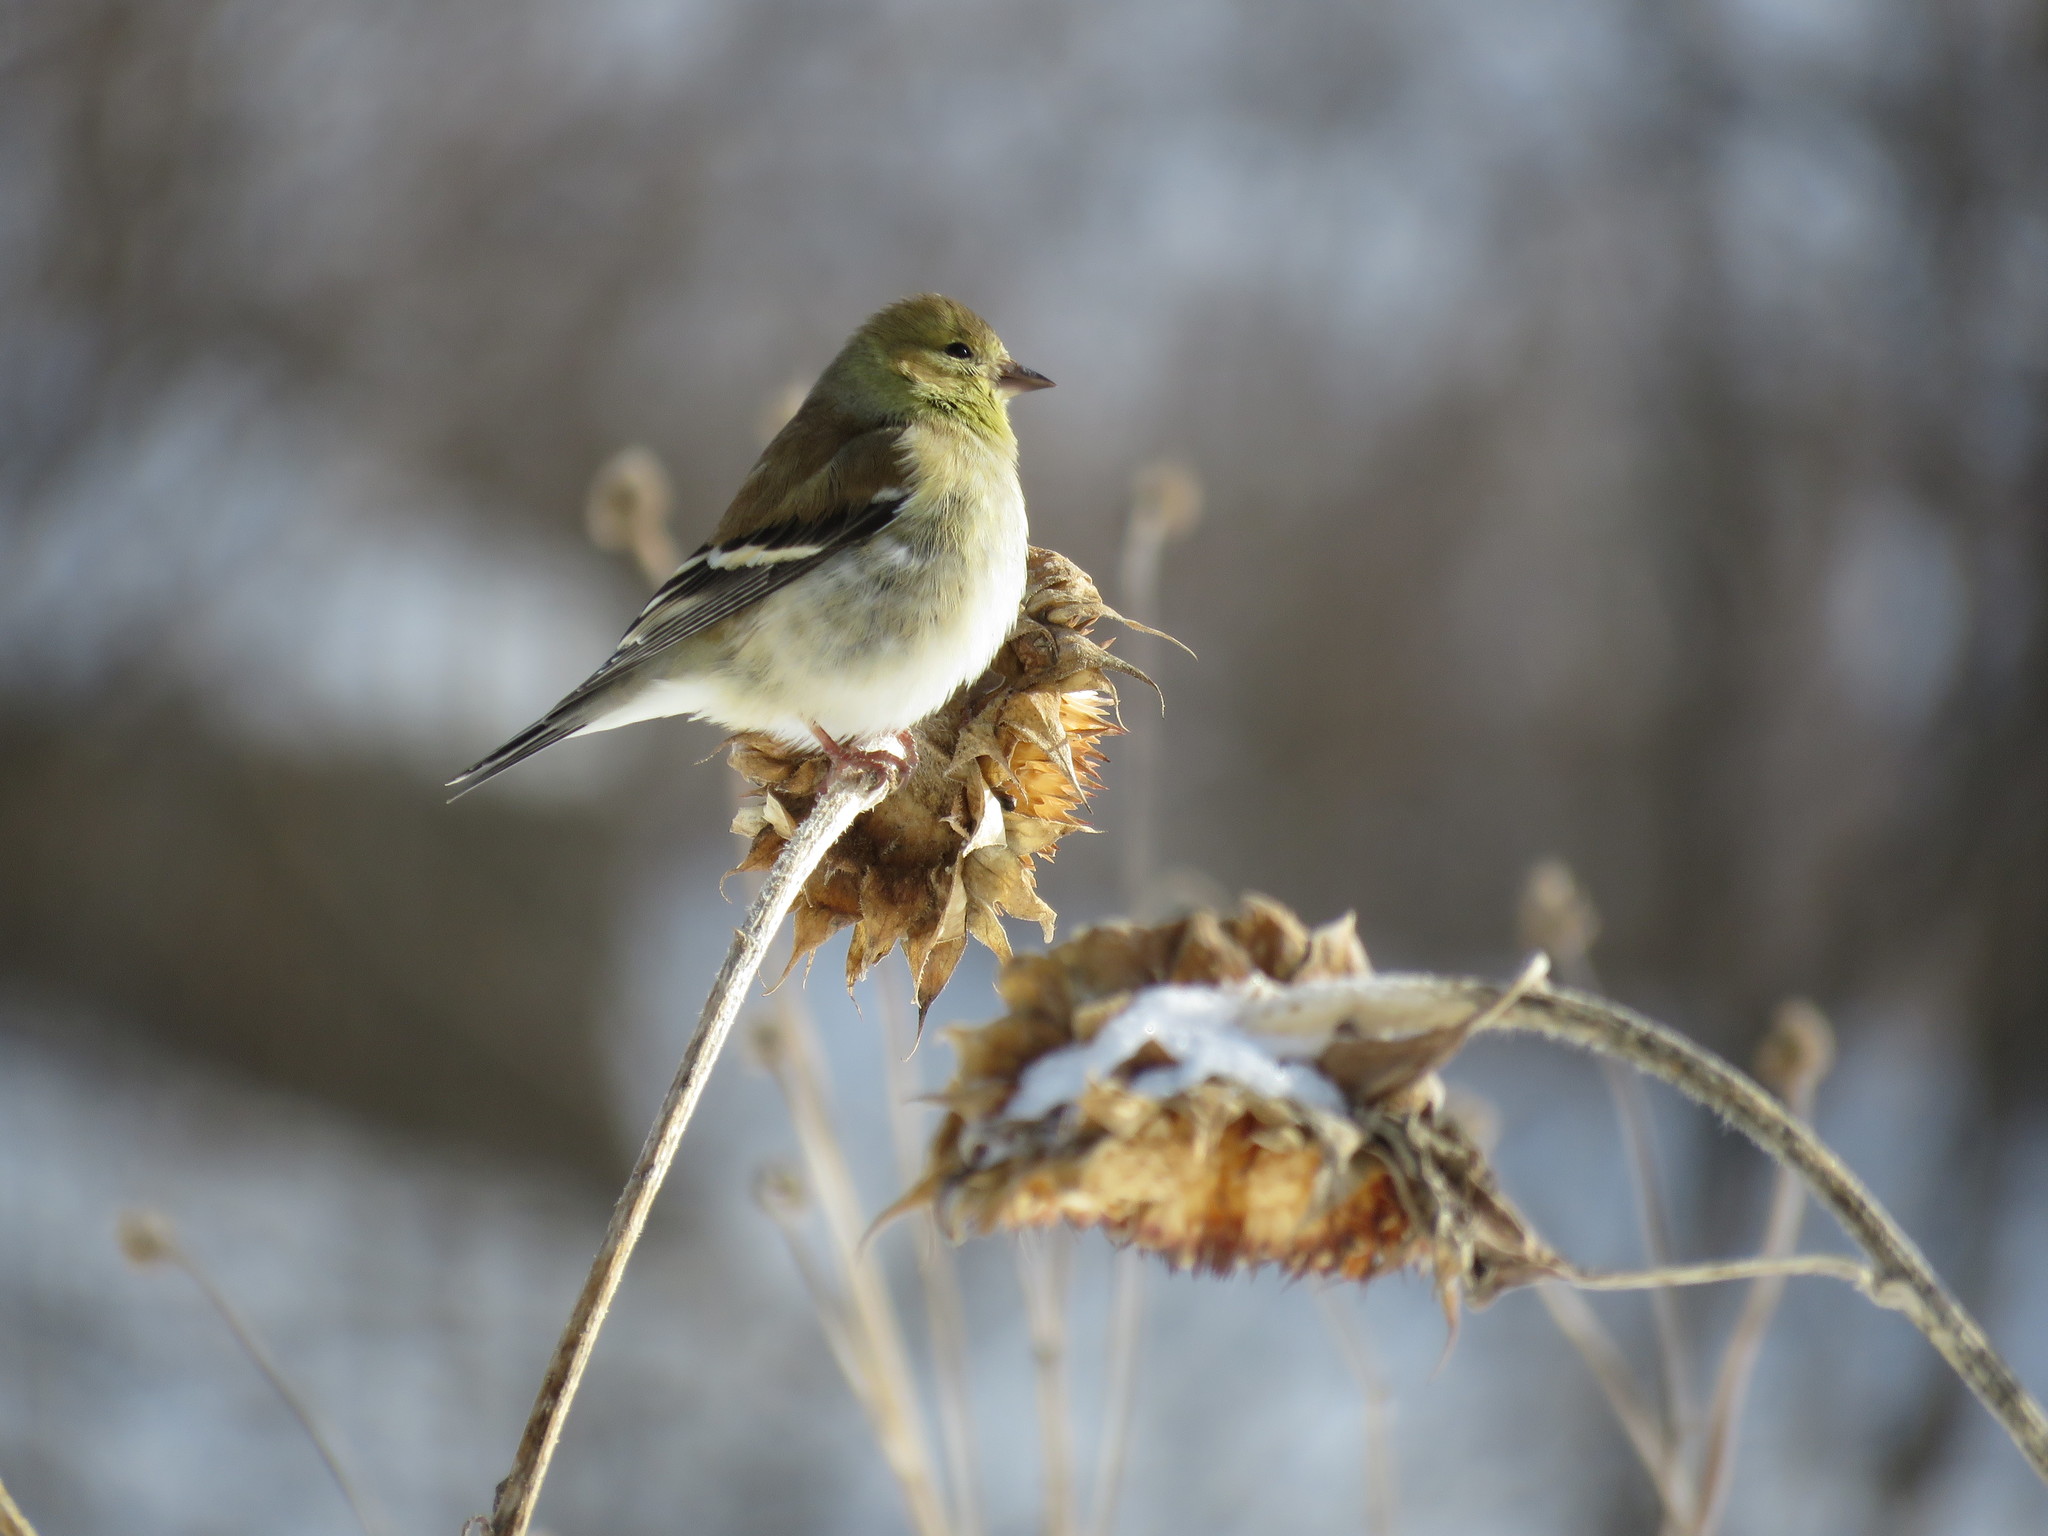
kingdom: Animalia
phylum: Chordata
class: Aves
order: Passeriformes
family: Fringillidae
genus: Spinus
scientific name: Spinus tristis
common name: American goldfinch
